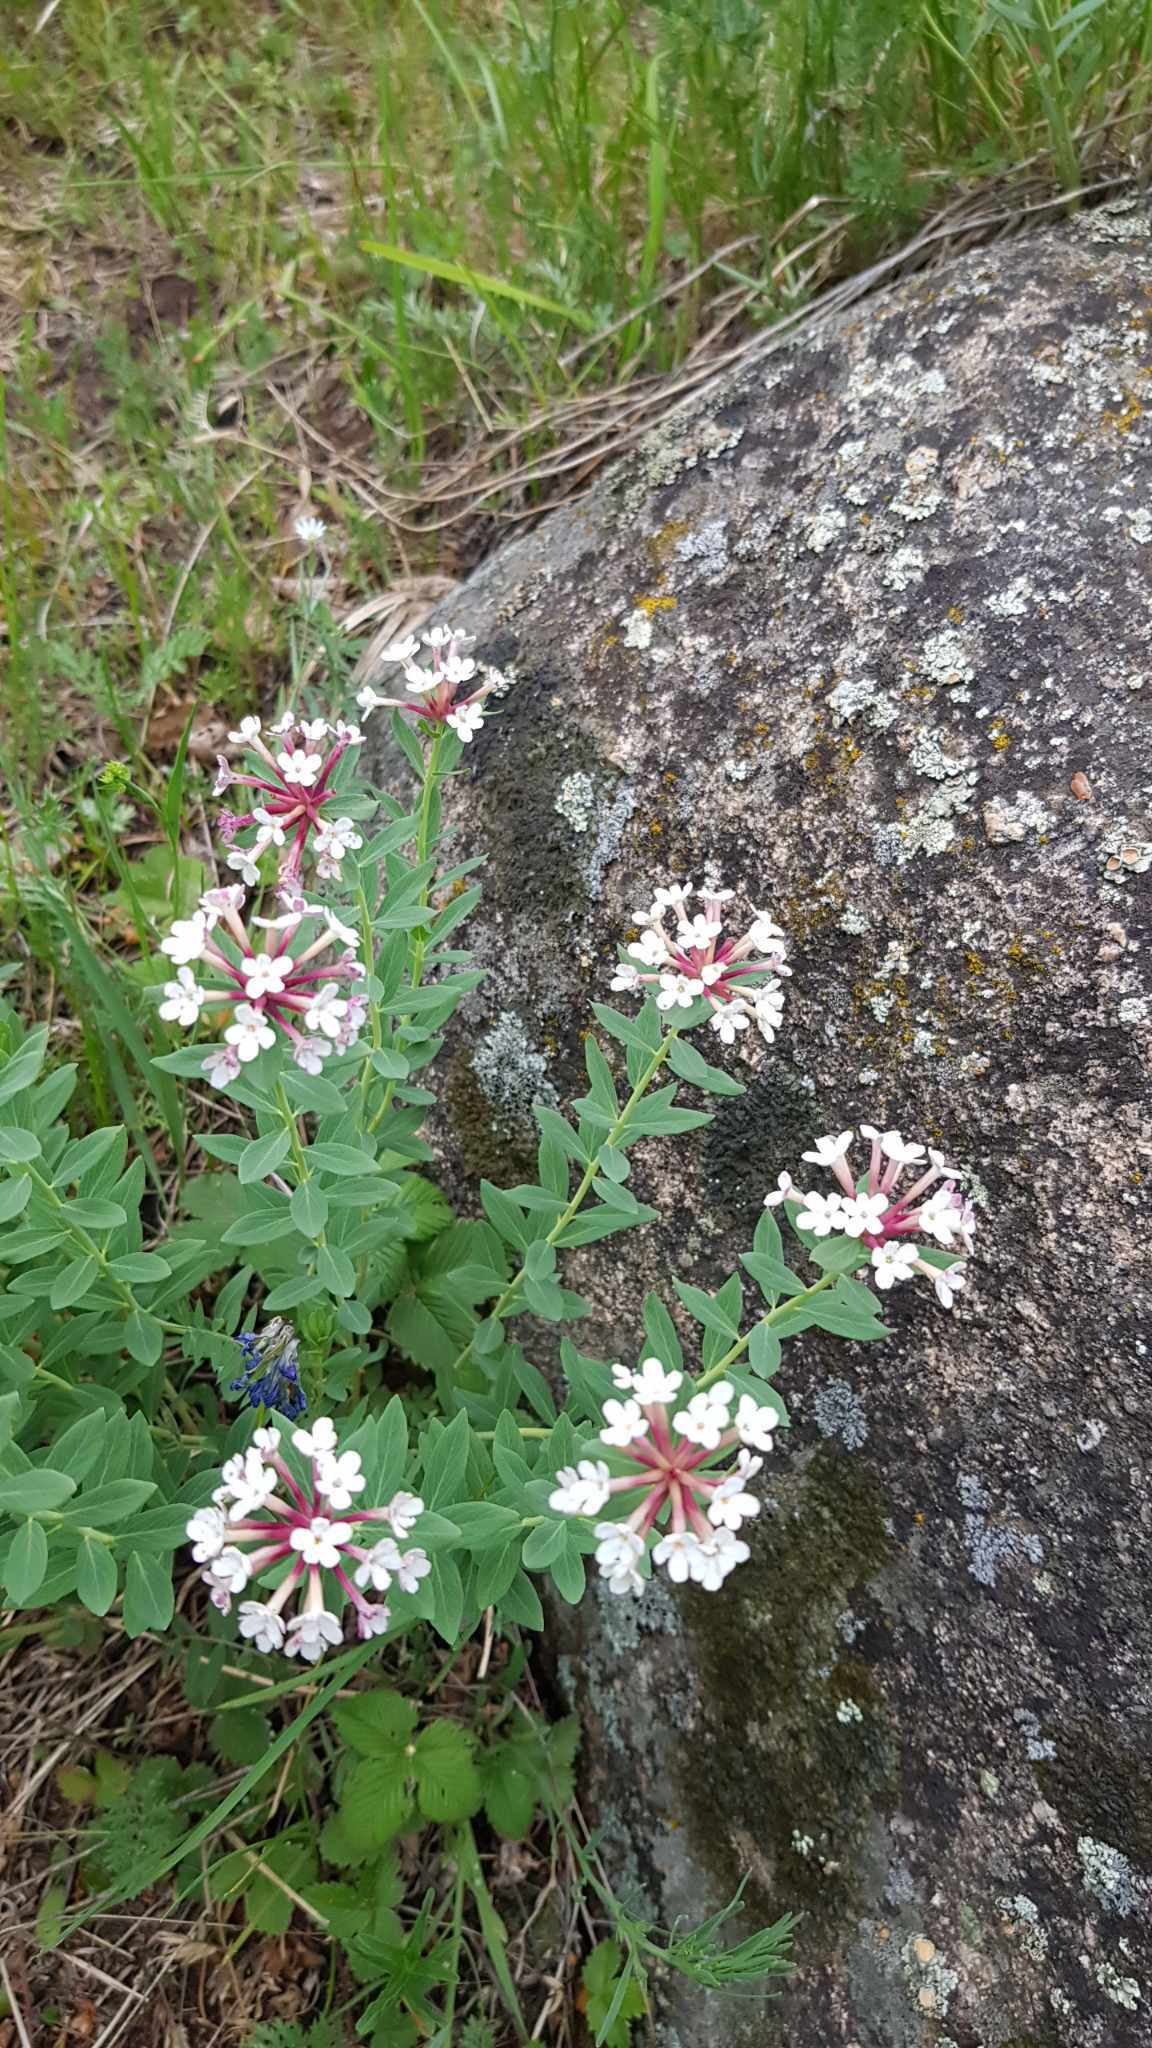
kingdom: Plantae
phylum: Tracheophyta
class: Magnoliopsida
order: Malvales
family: Thymelaeaceae
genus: Stellera
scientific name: Stellera chamaejasme
